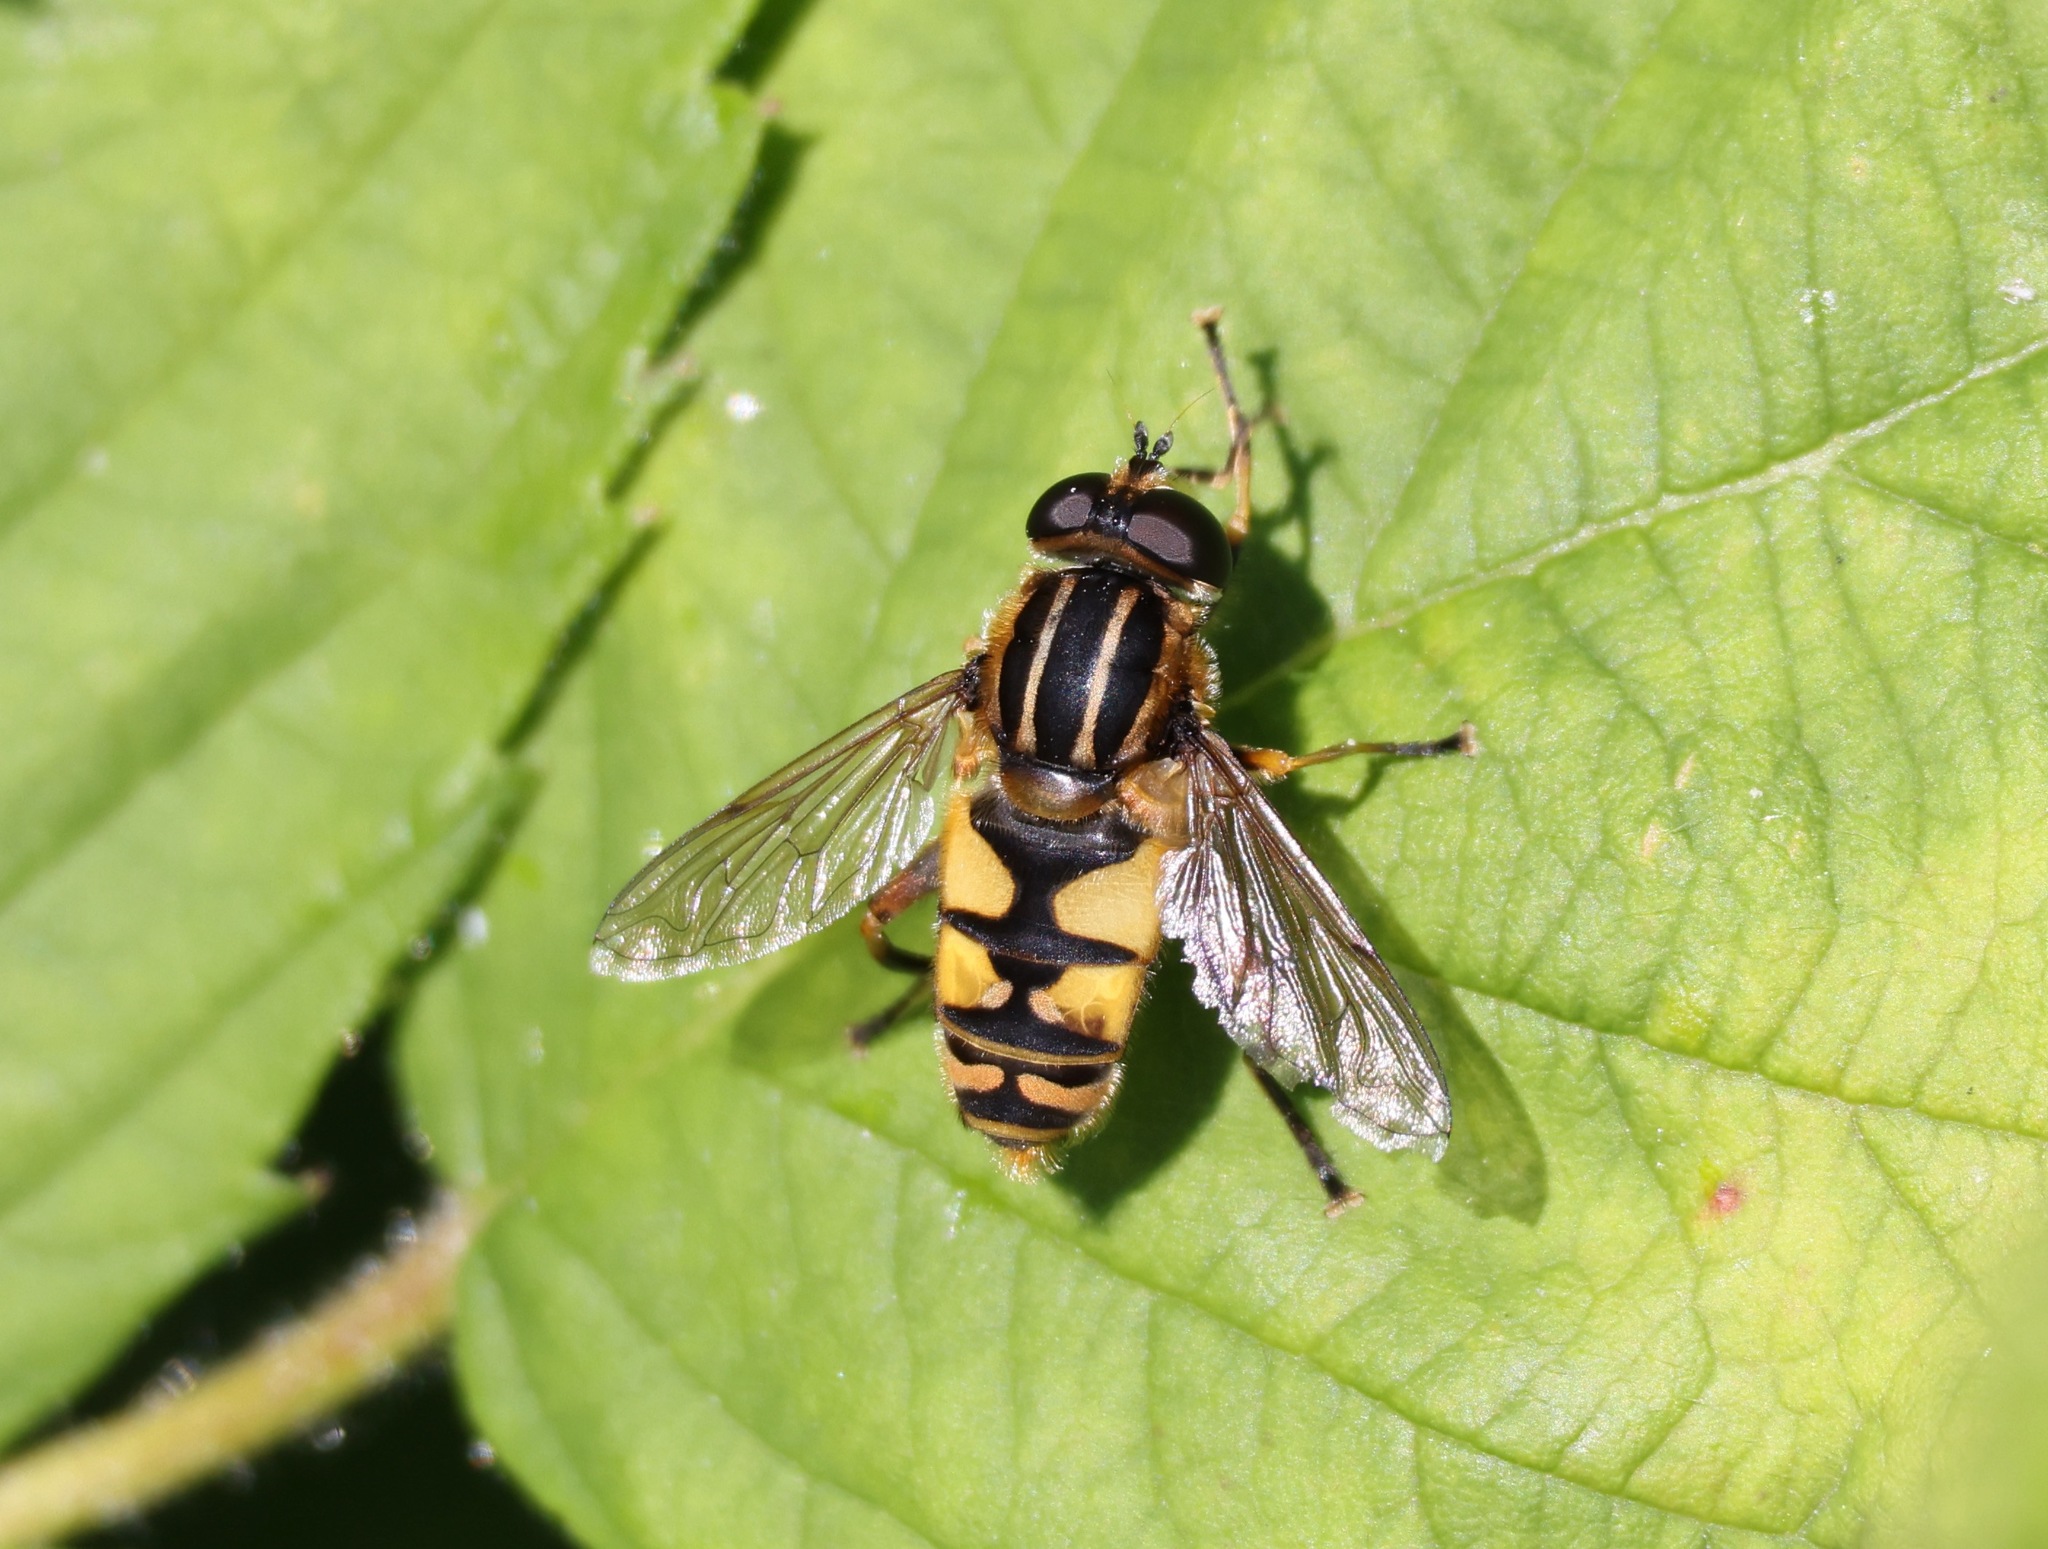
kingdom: Animalia
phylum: Arthropoda
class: Insecta
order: Diptera
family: Syrphidae
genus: Helophilus
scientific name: Helophilus pendulus
